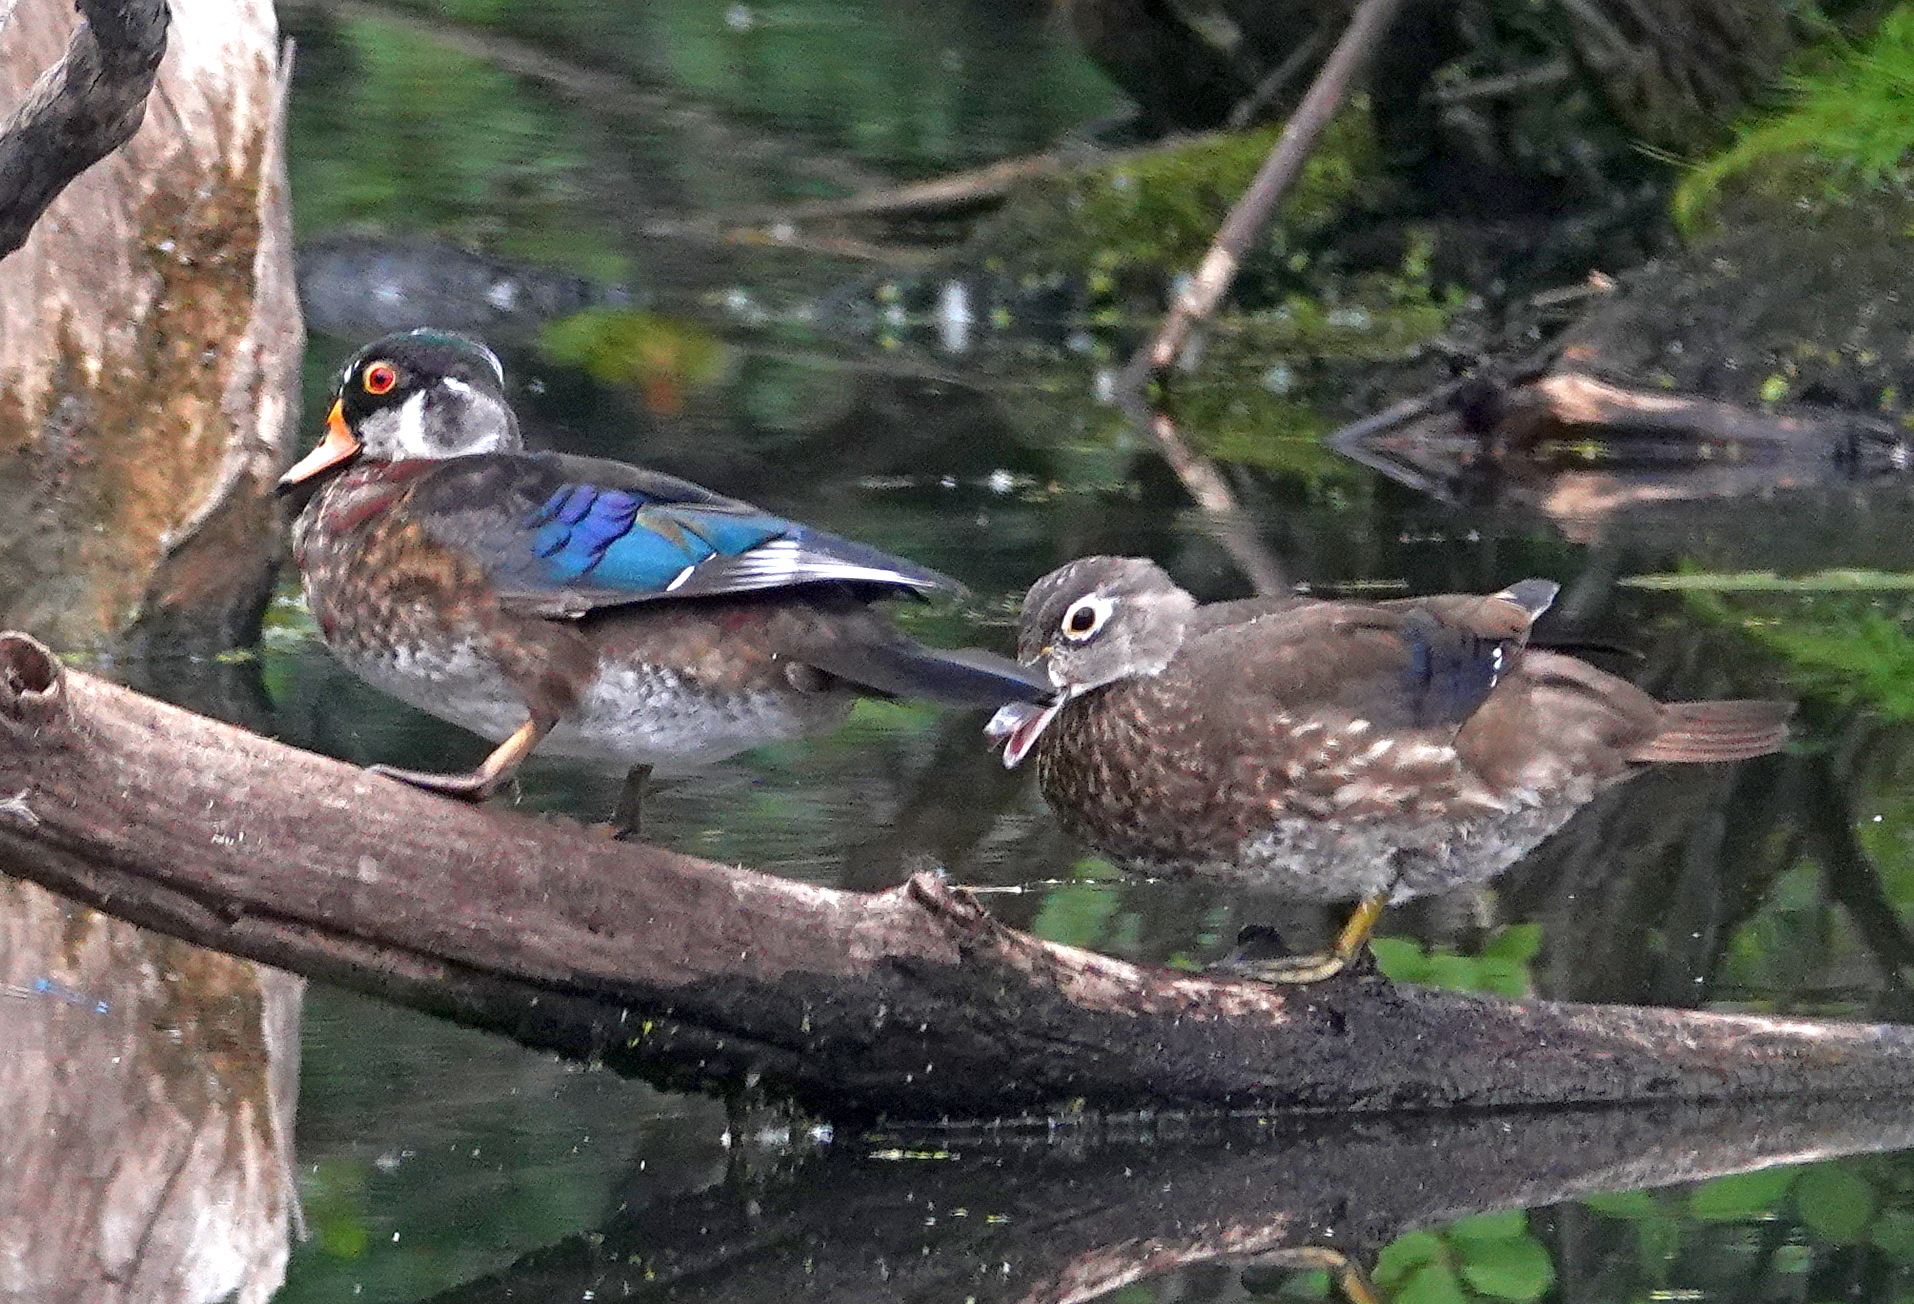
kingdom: Animalia
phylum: Chordata
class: Aves
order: Anseriformes
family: Anatidae
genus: Aix
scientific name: Aix sponsa
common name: Wood duck
